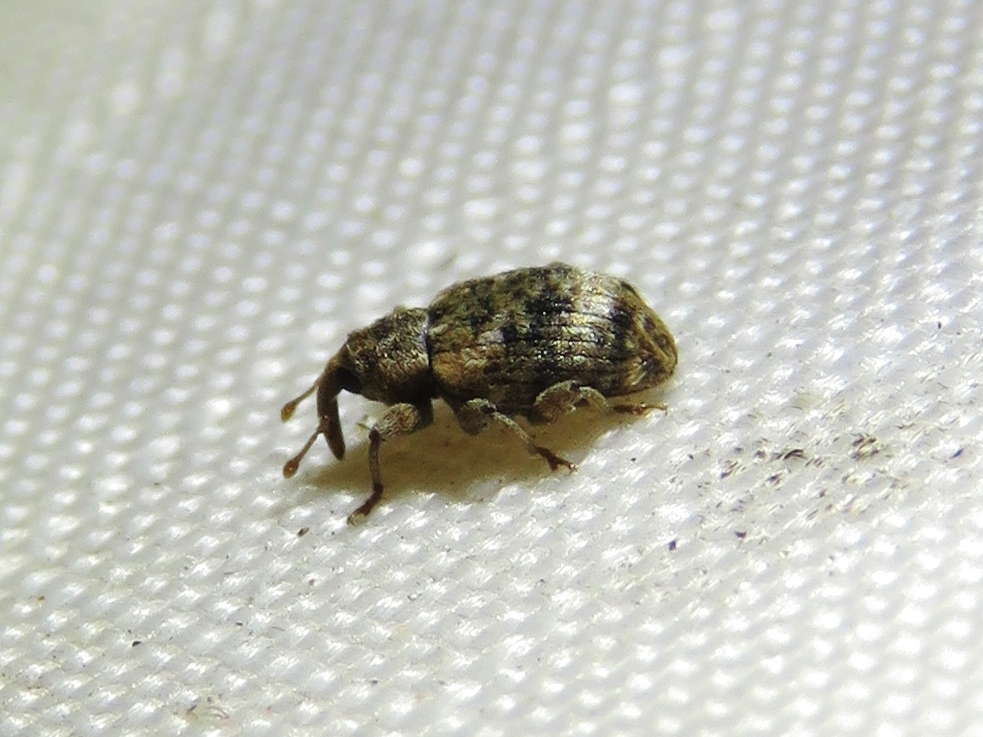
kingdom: Animalia
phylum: Arthropoda
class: Insecta
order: Coleoptera
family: Curculionidae
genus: Conotrachelus
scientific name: Conotrachelus recessus
